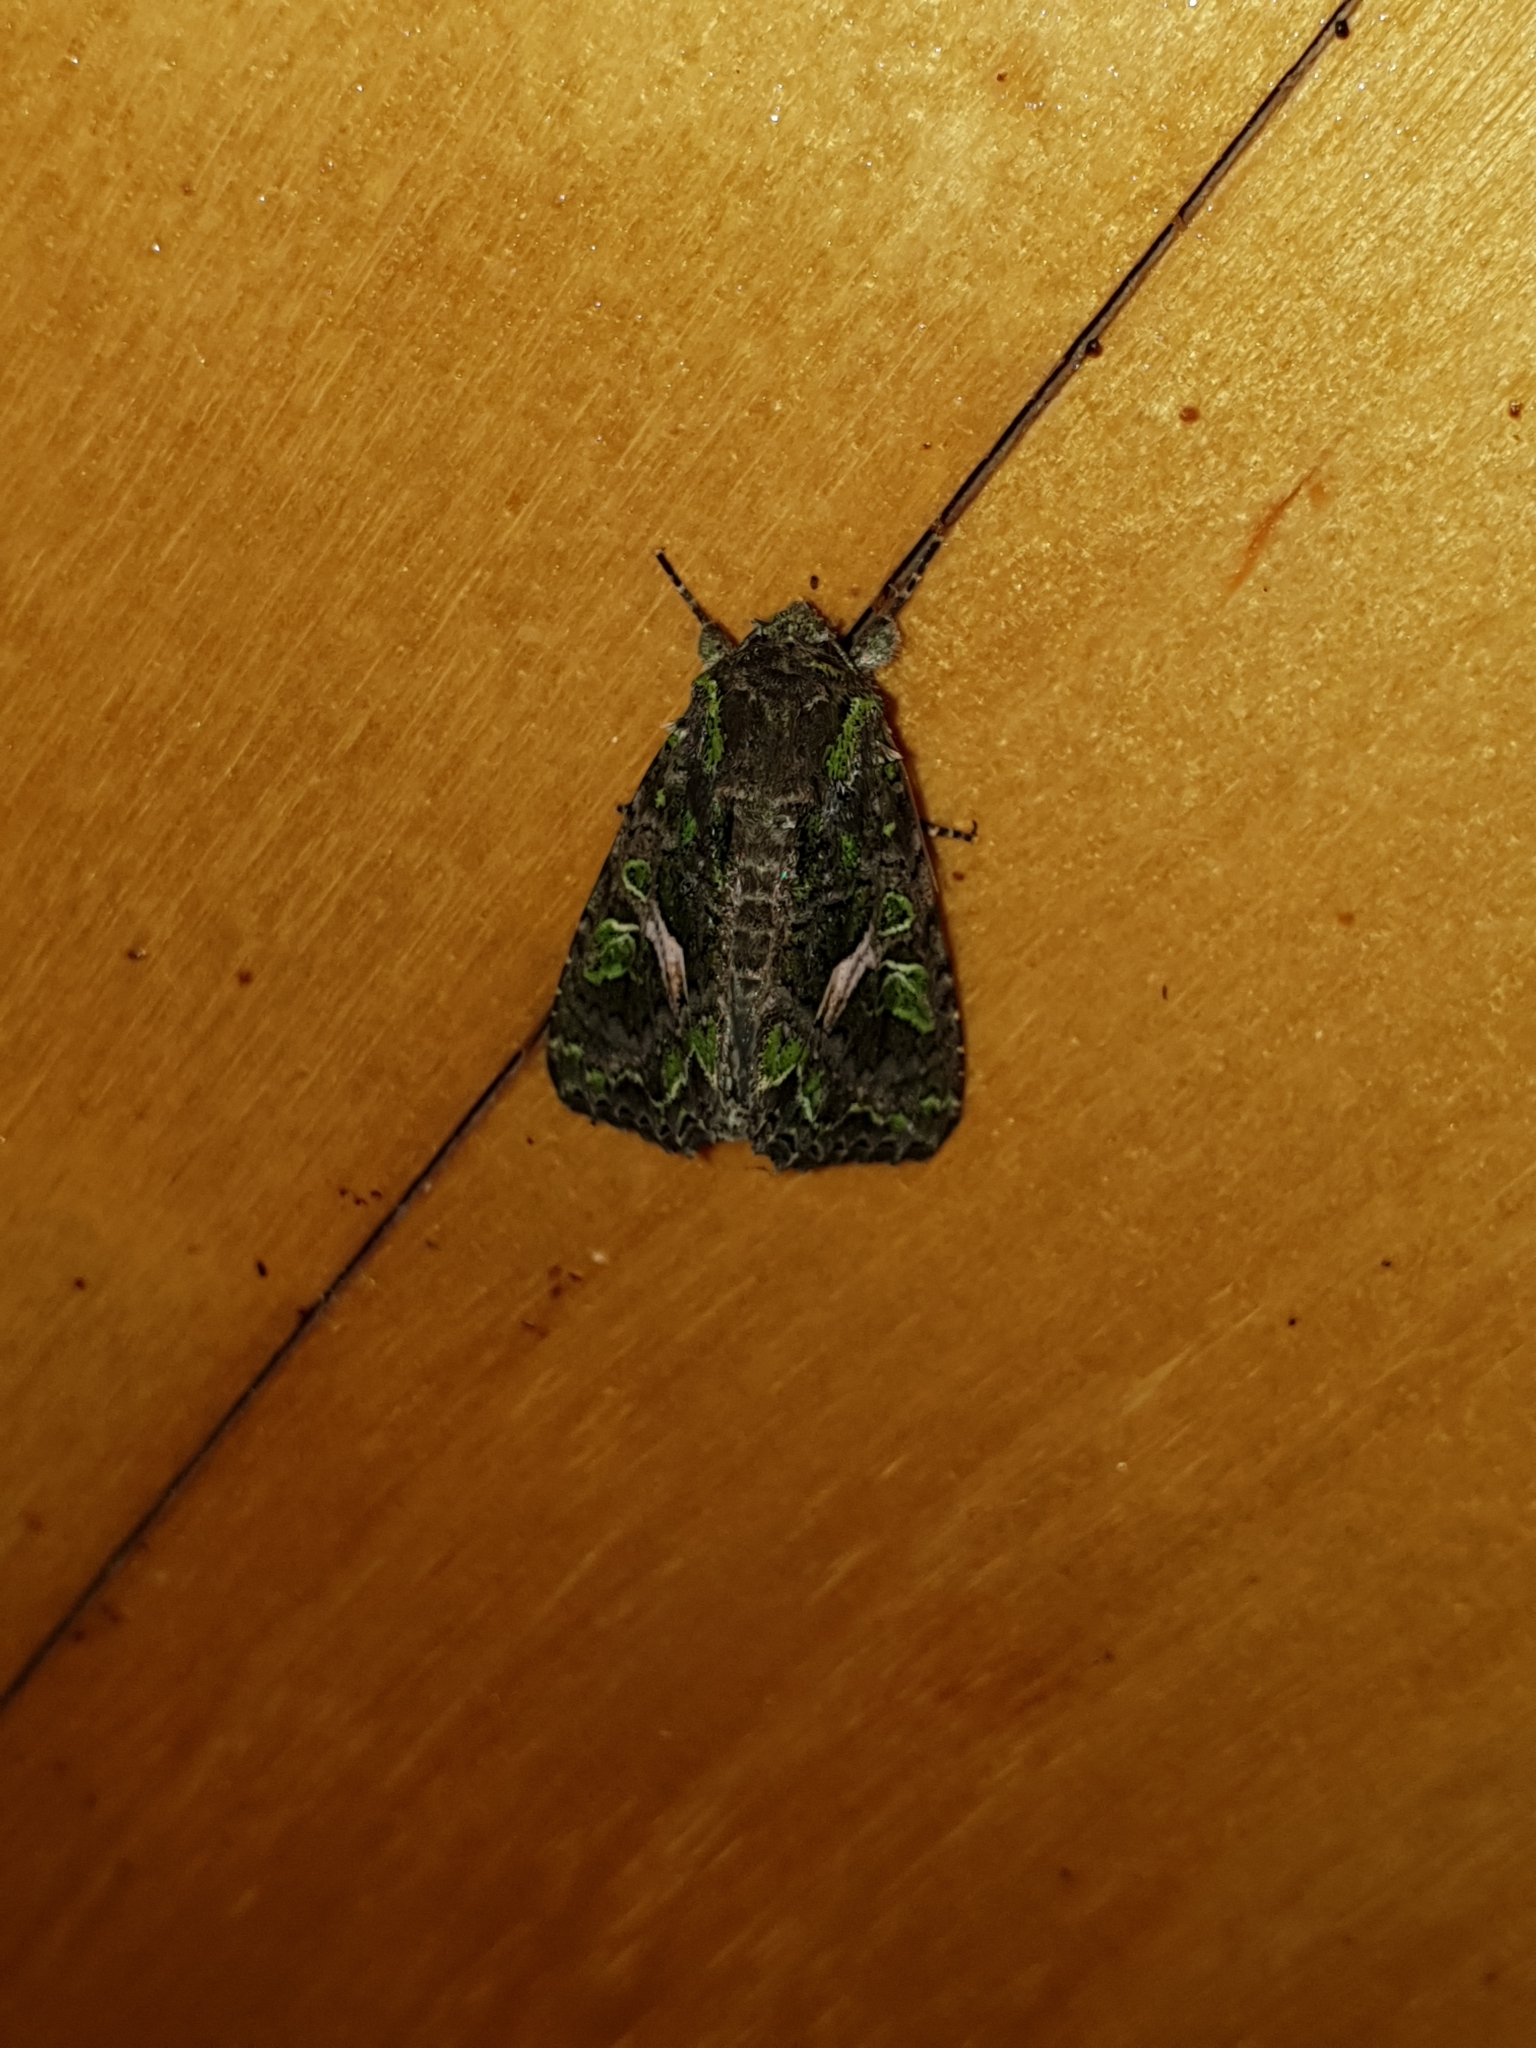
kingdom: Animalia
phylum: Arthropoda
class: Insecta
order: Lepidoptera
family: Noctuidae
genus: Trachea
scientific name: Trachea atriplicis
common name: Orache moth
